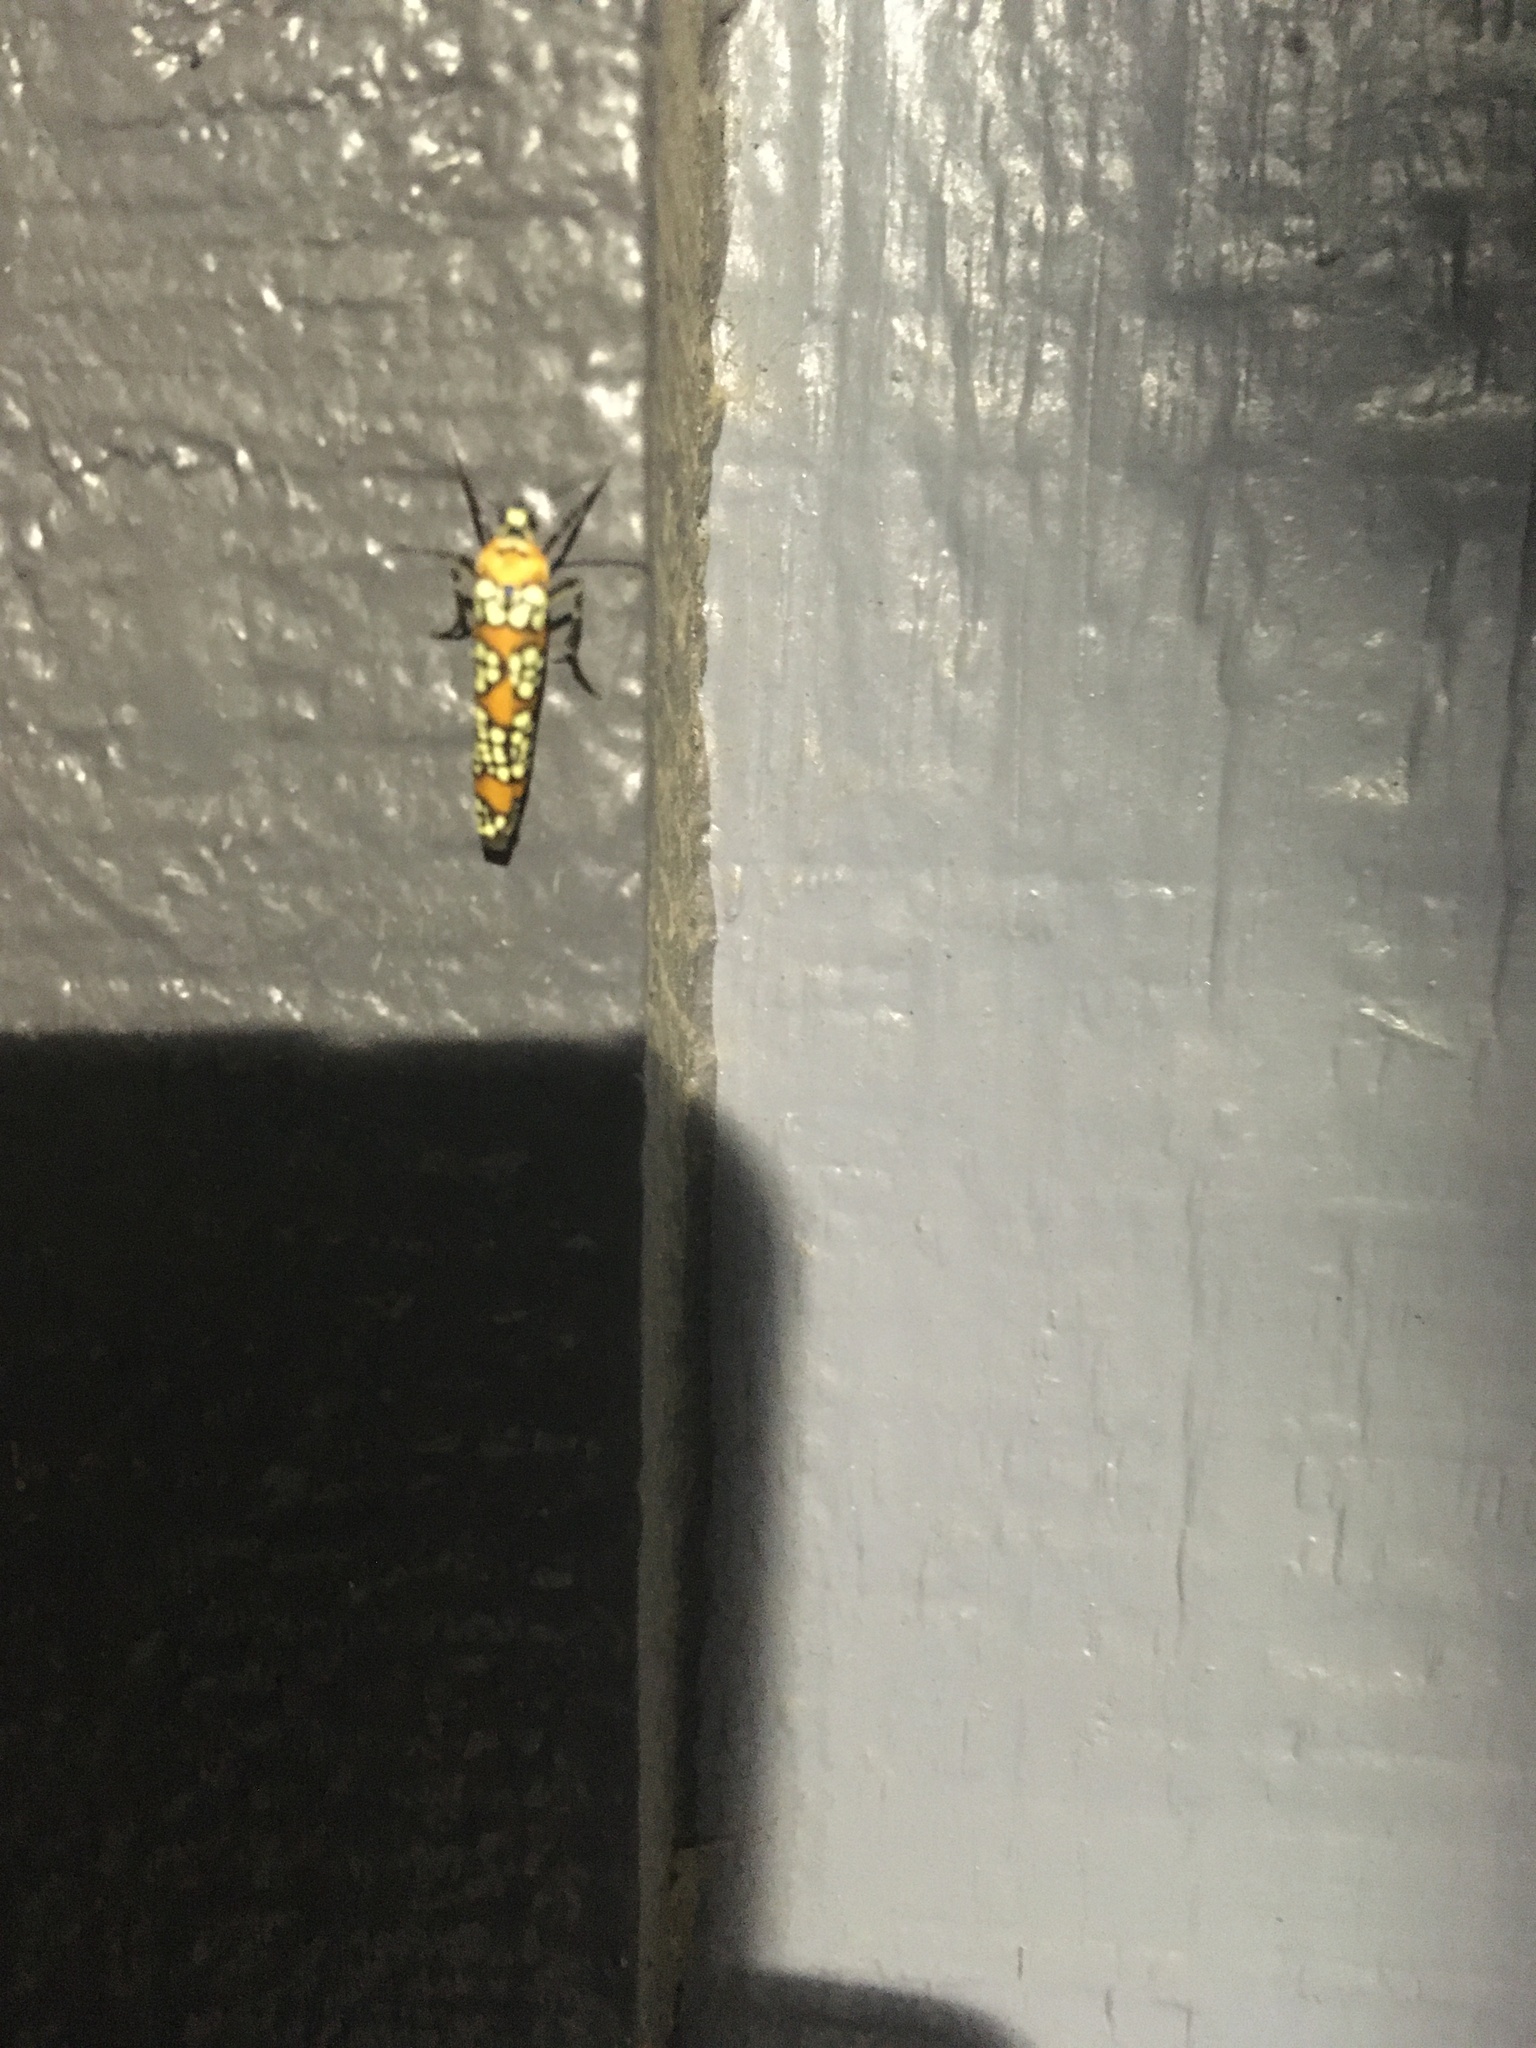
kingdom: Animalia
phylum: Arthropoda
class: Insecta
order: Lepidoptera
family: Attevidae
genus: Atteva
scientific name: Atteva punctella
